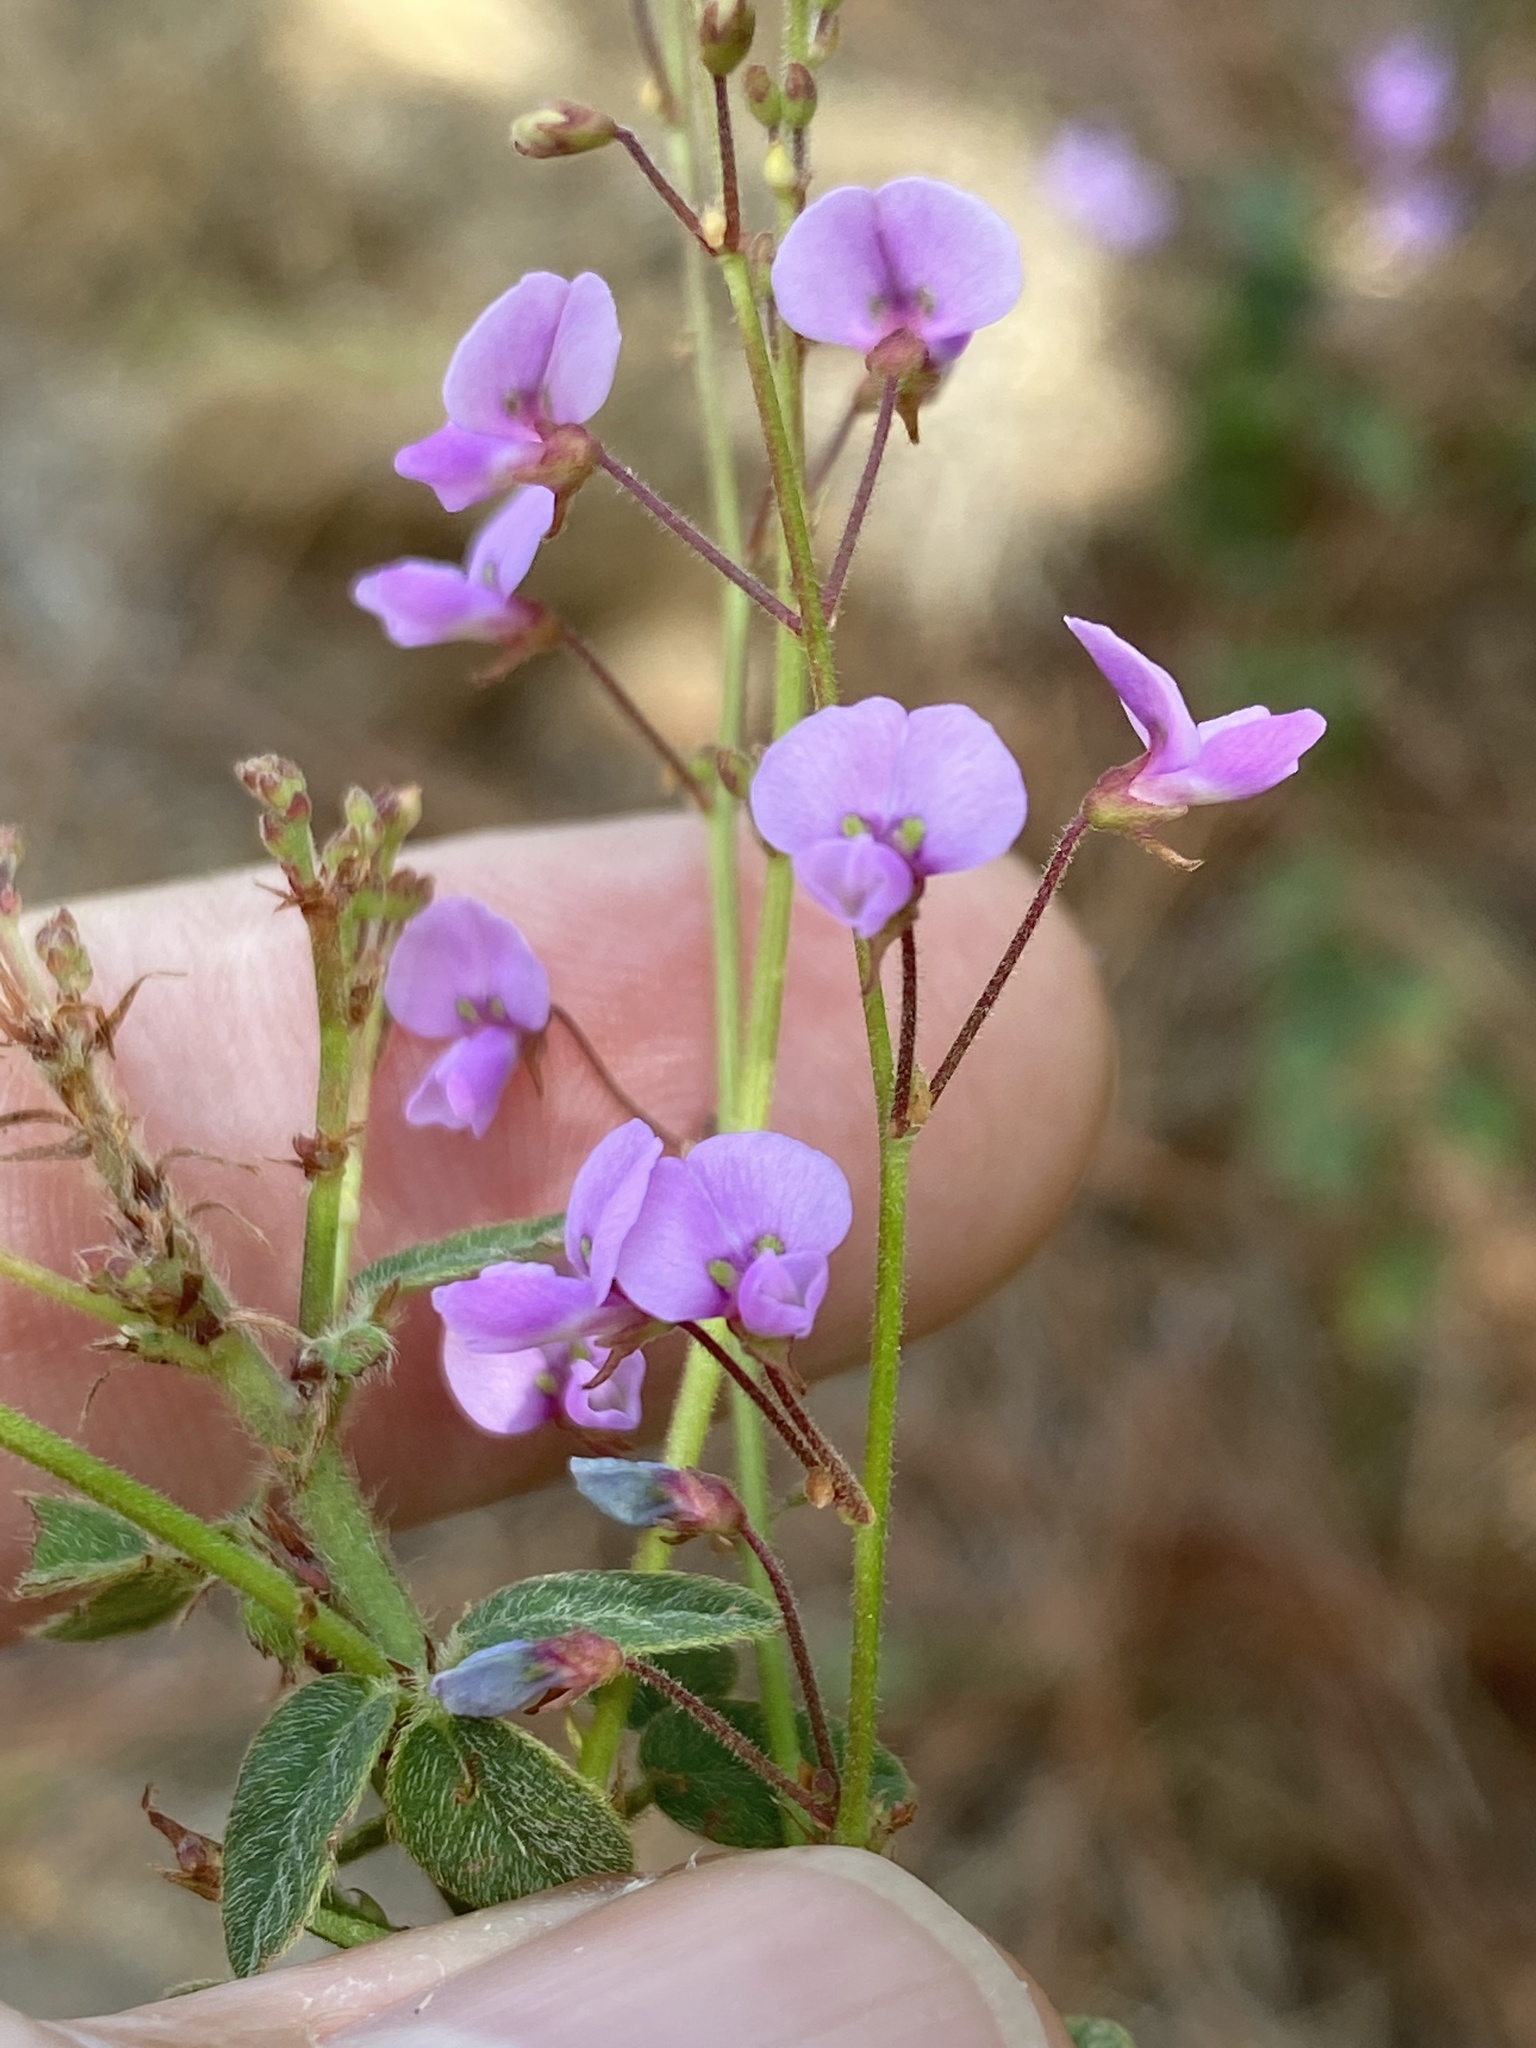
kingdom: Plantae
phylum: Tracheophyta
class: Magnoliopsida
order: Fabales
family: Fabaceae
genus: Desmodium
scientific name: Desmodium ciliare
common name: Hairy small-leaf ticktrefoil
